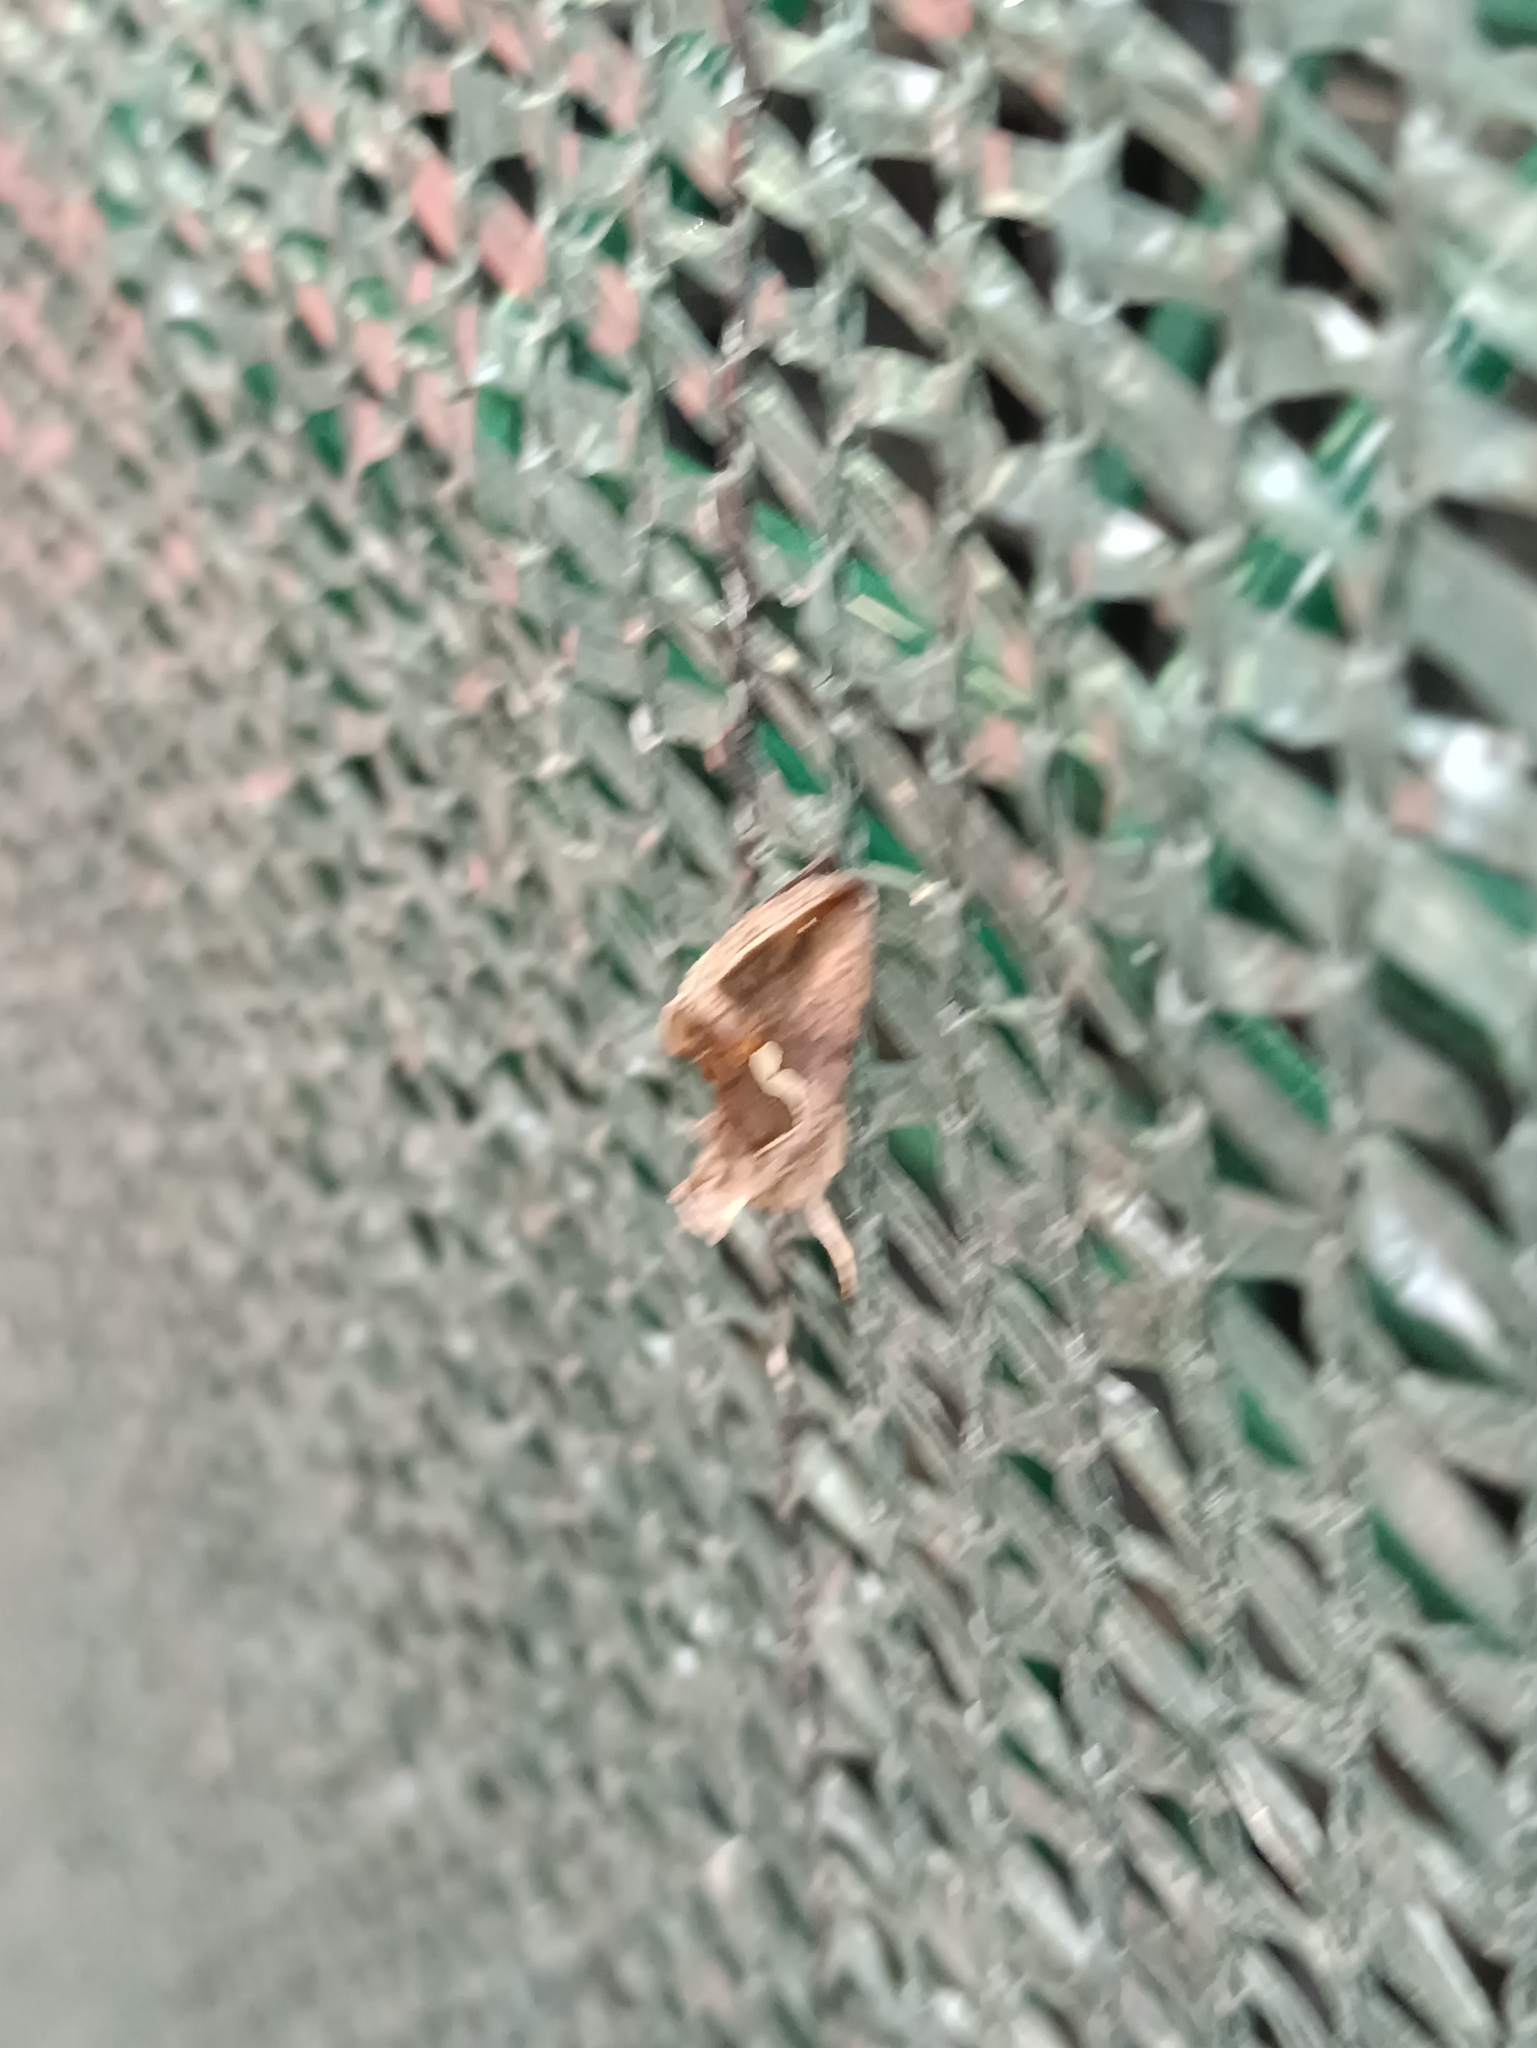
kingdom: Animalia
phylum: Arthropoda
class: Insecta
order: Lepidoptera
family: Noctuidae
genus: Macdunnoughia
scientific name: Macdunnoughia confusa
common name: Dewick's plusia
